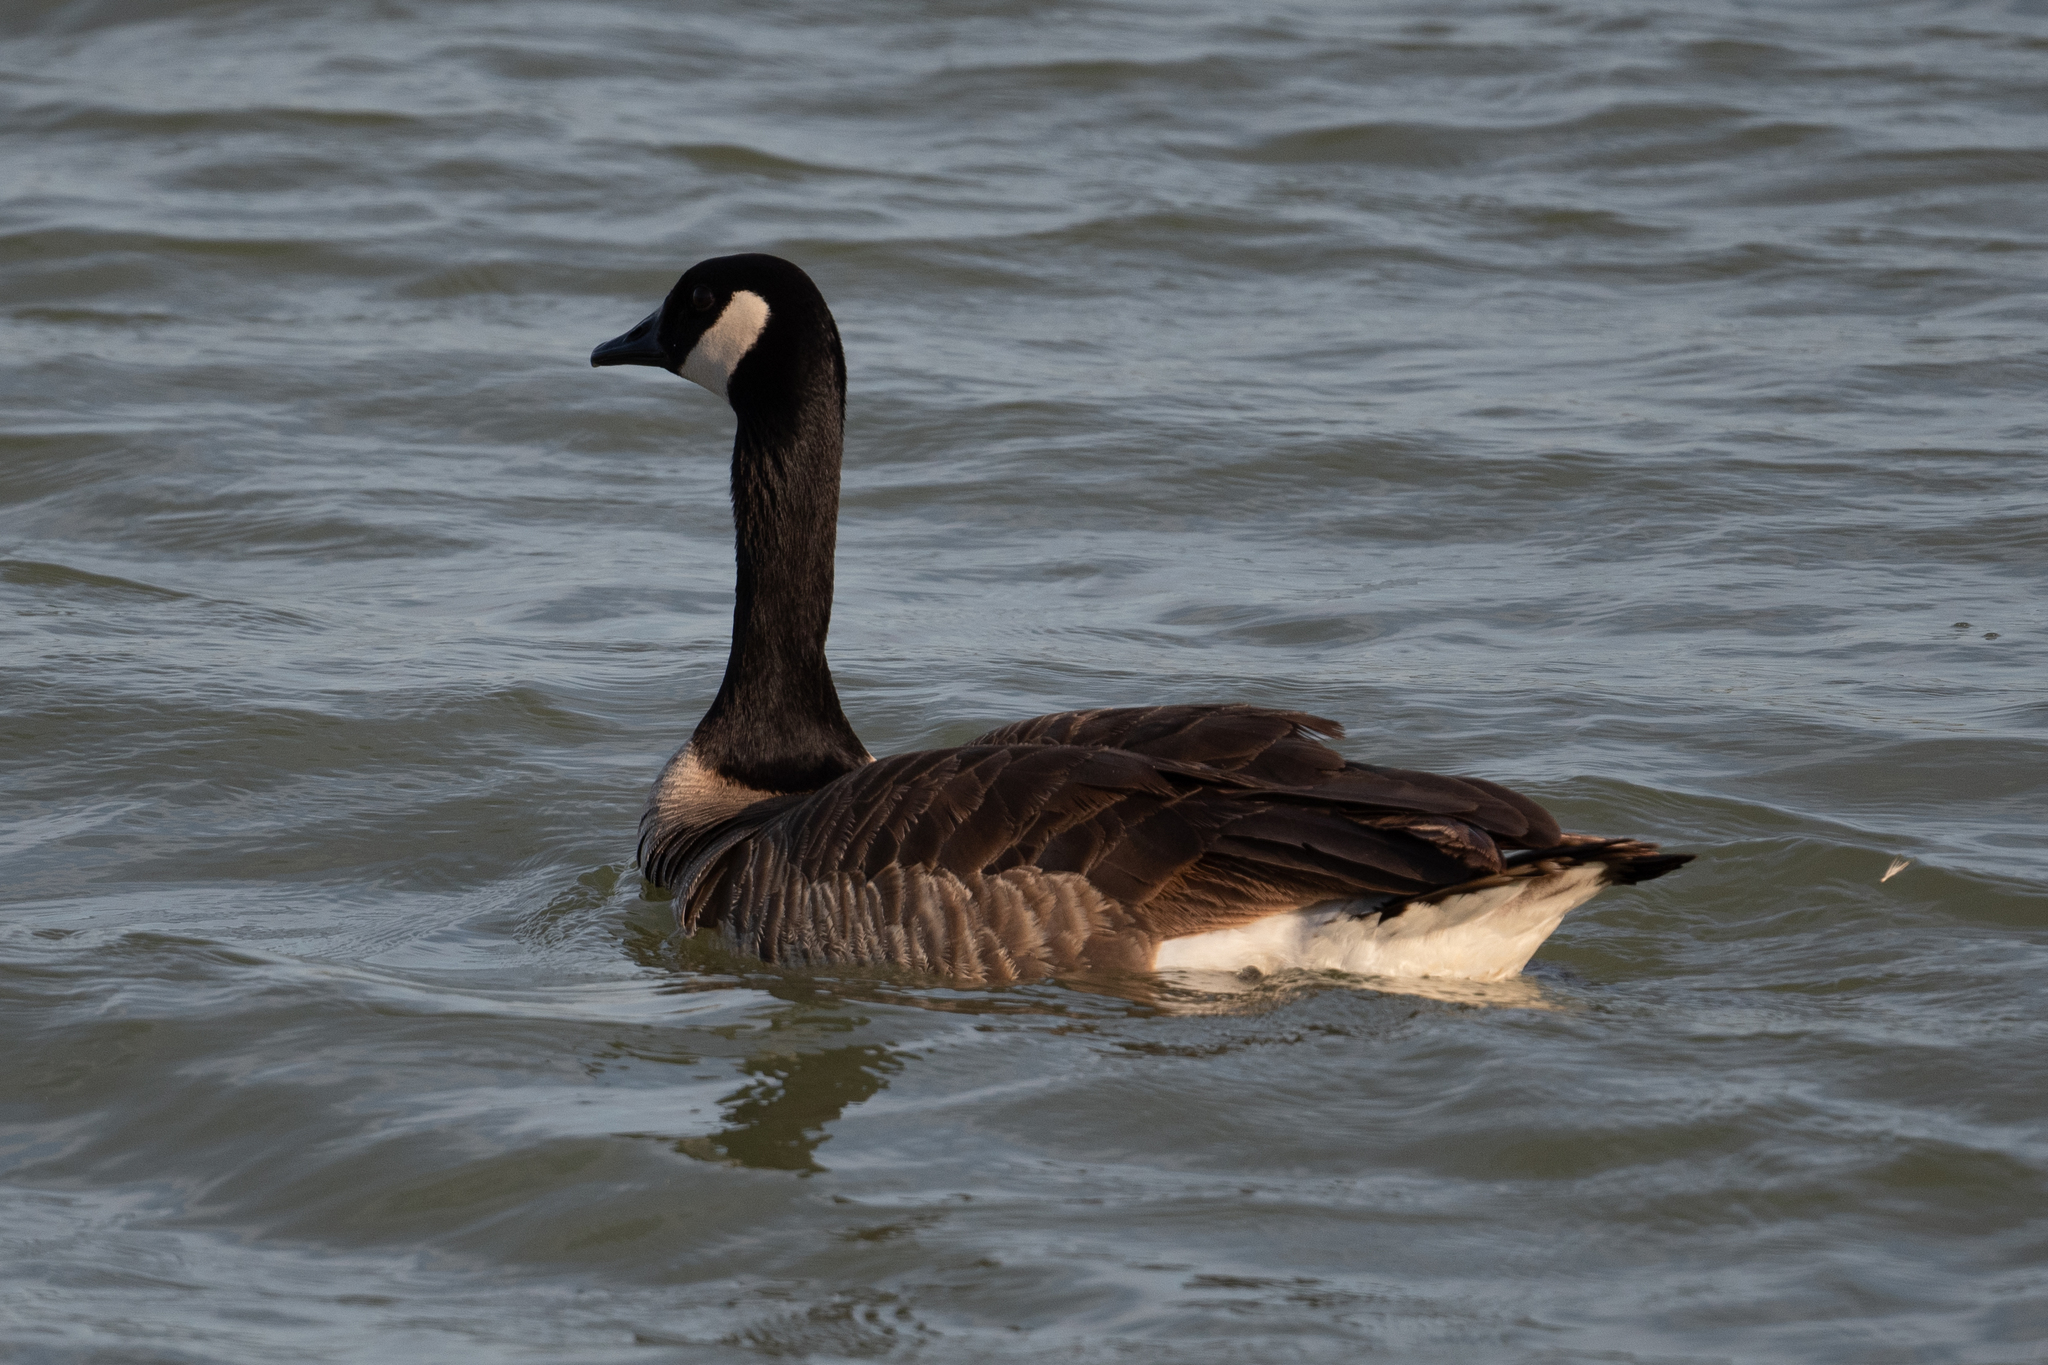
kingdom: Animalia
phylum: Chordata
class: Aves
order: Anseriformes
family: Anatidae
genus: Branta
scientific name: Branta canadensis
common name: Canada goose
